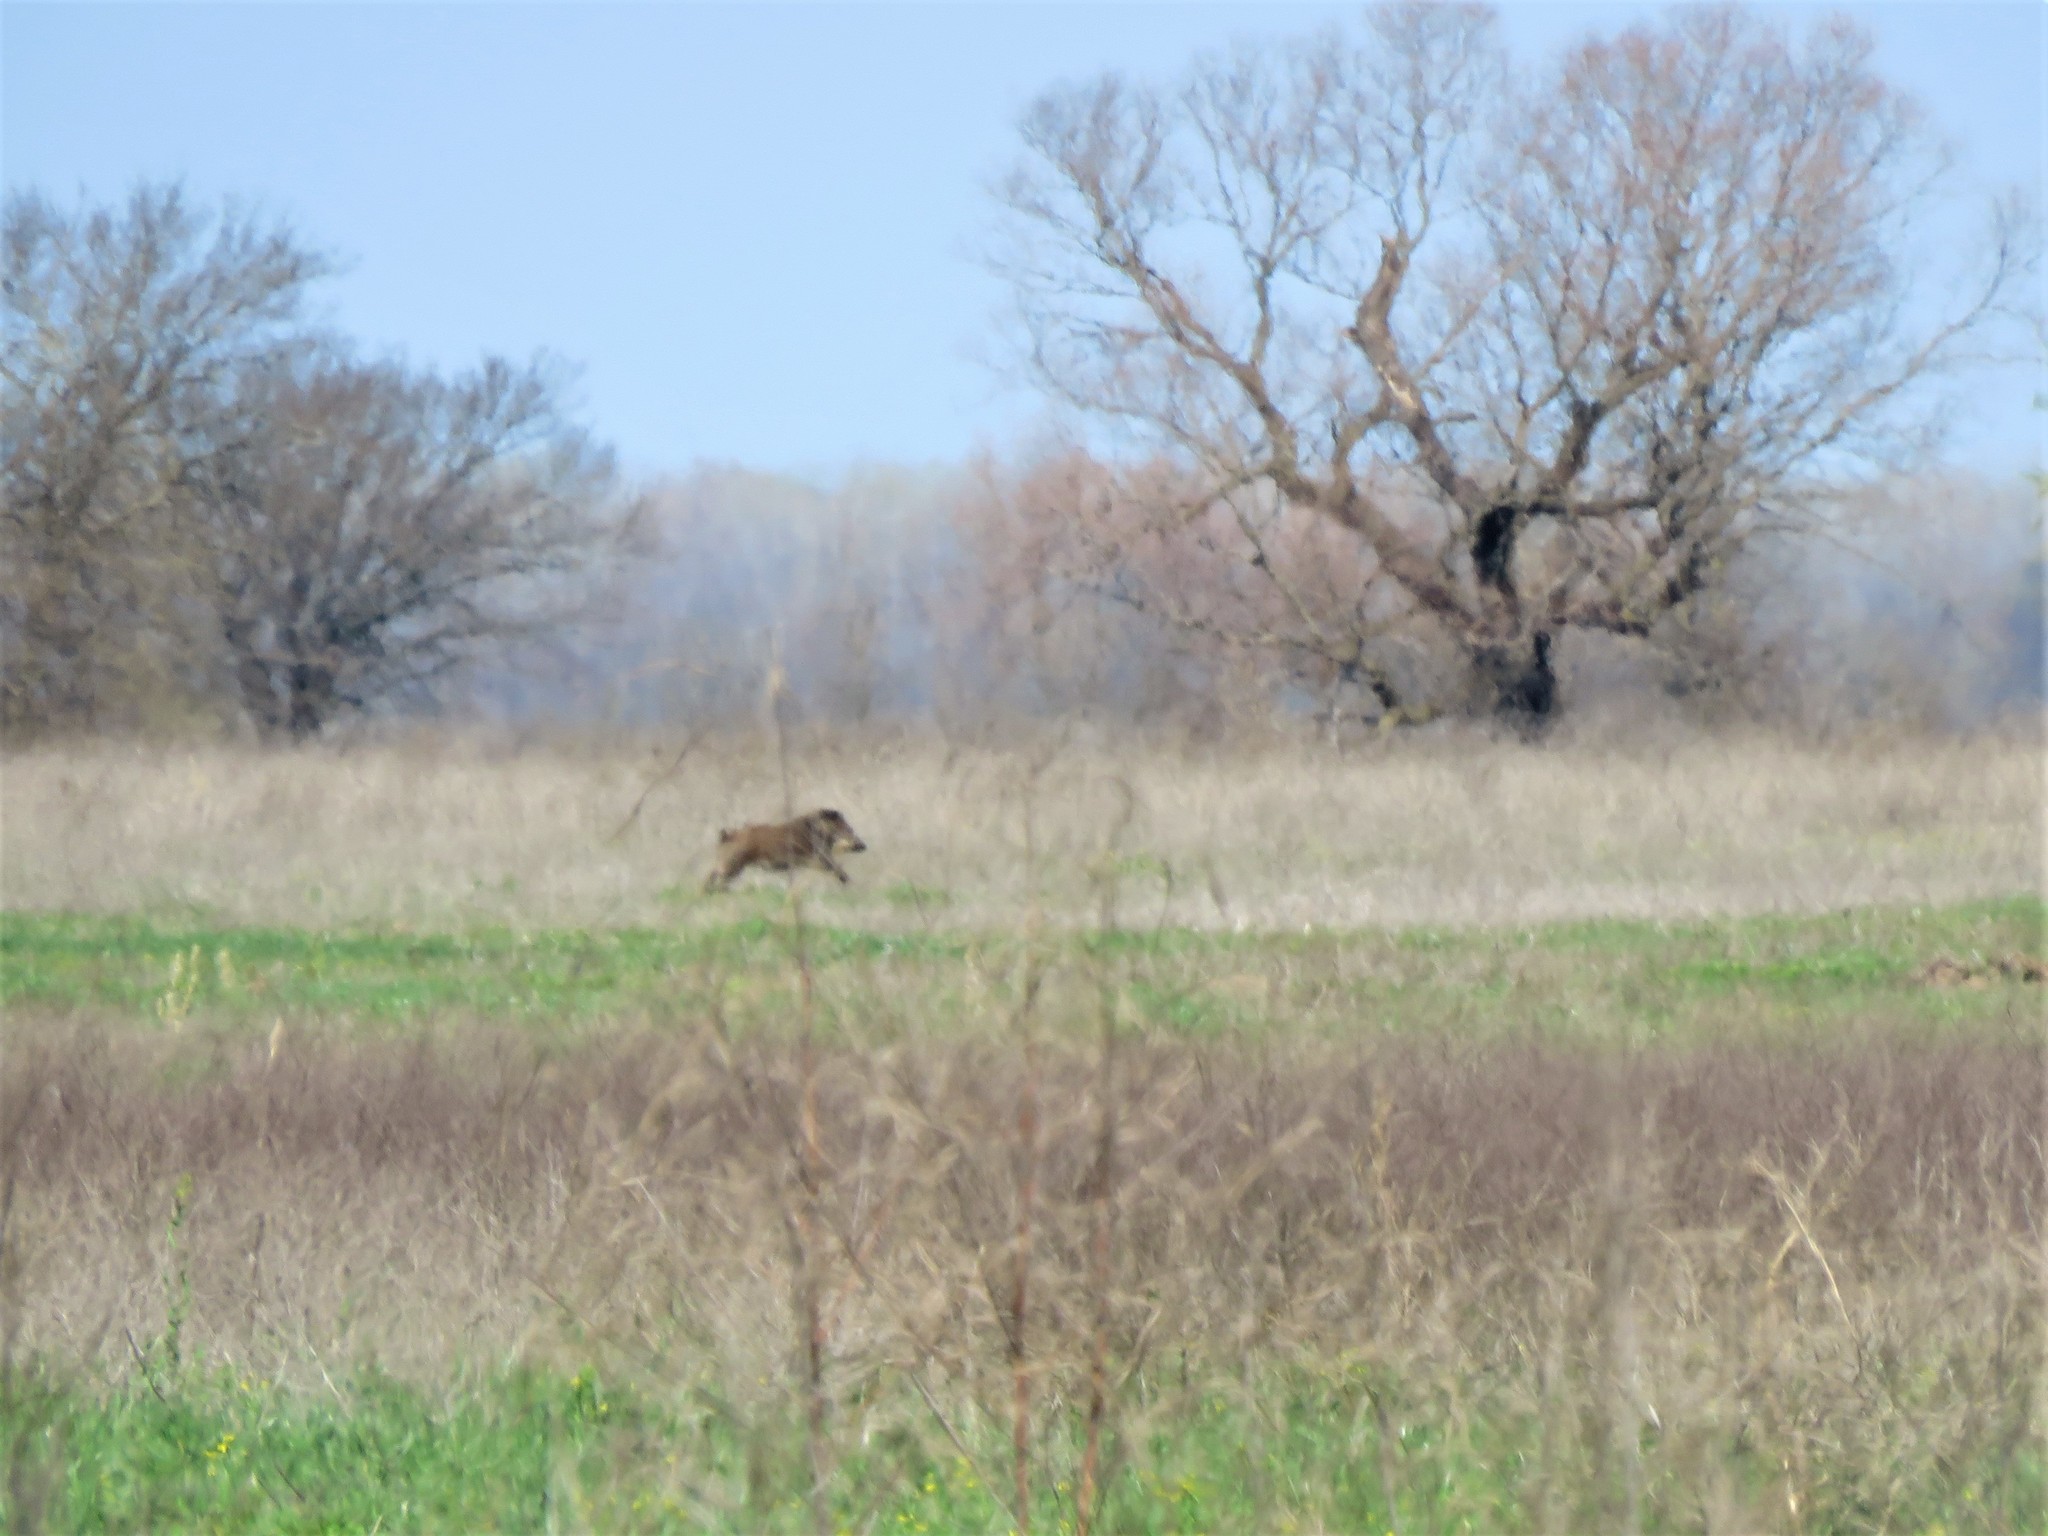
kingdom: Animalia
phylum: Chordata
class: Mammalia
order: Artiodactyla
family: Suidae
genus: Sus
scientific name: Sus scrofa
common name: Wild boar
